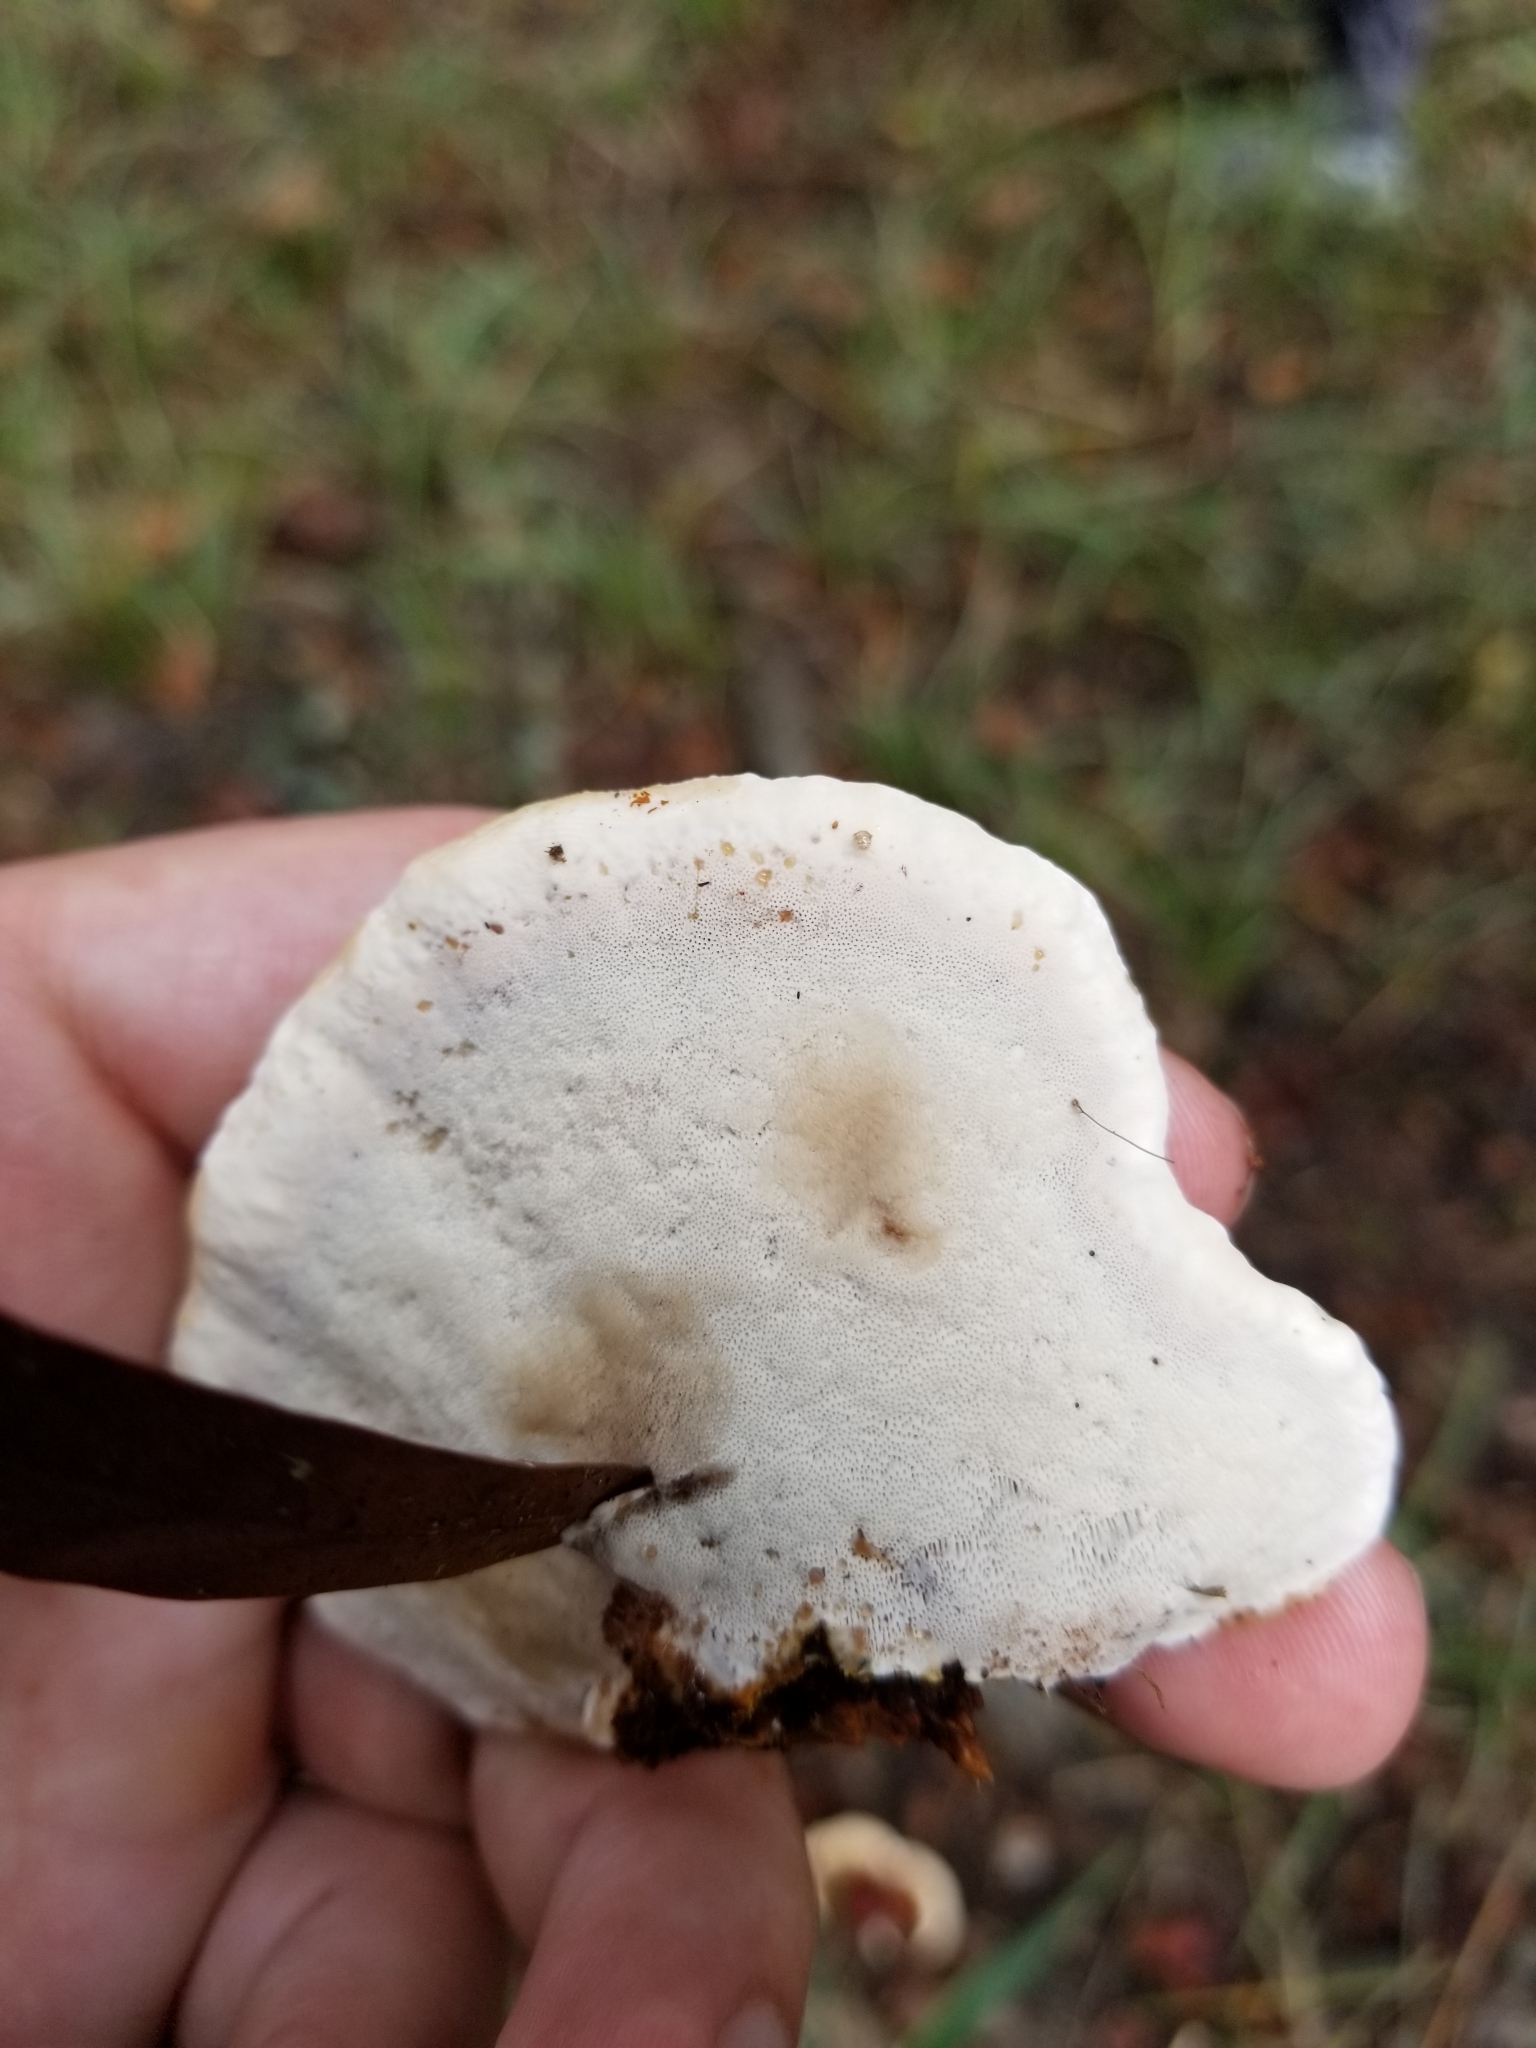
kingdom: Fungi
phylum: Basidiomycota
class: Agaricomycetes
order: Polyporales
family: Polyporaceae
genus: Ganoderma
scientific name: Ganoderma resinaceum
